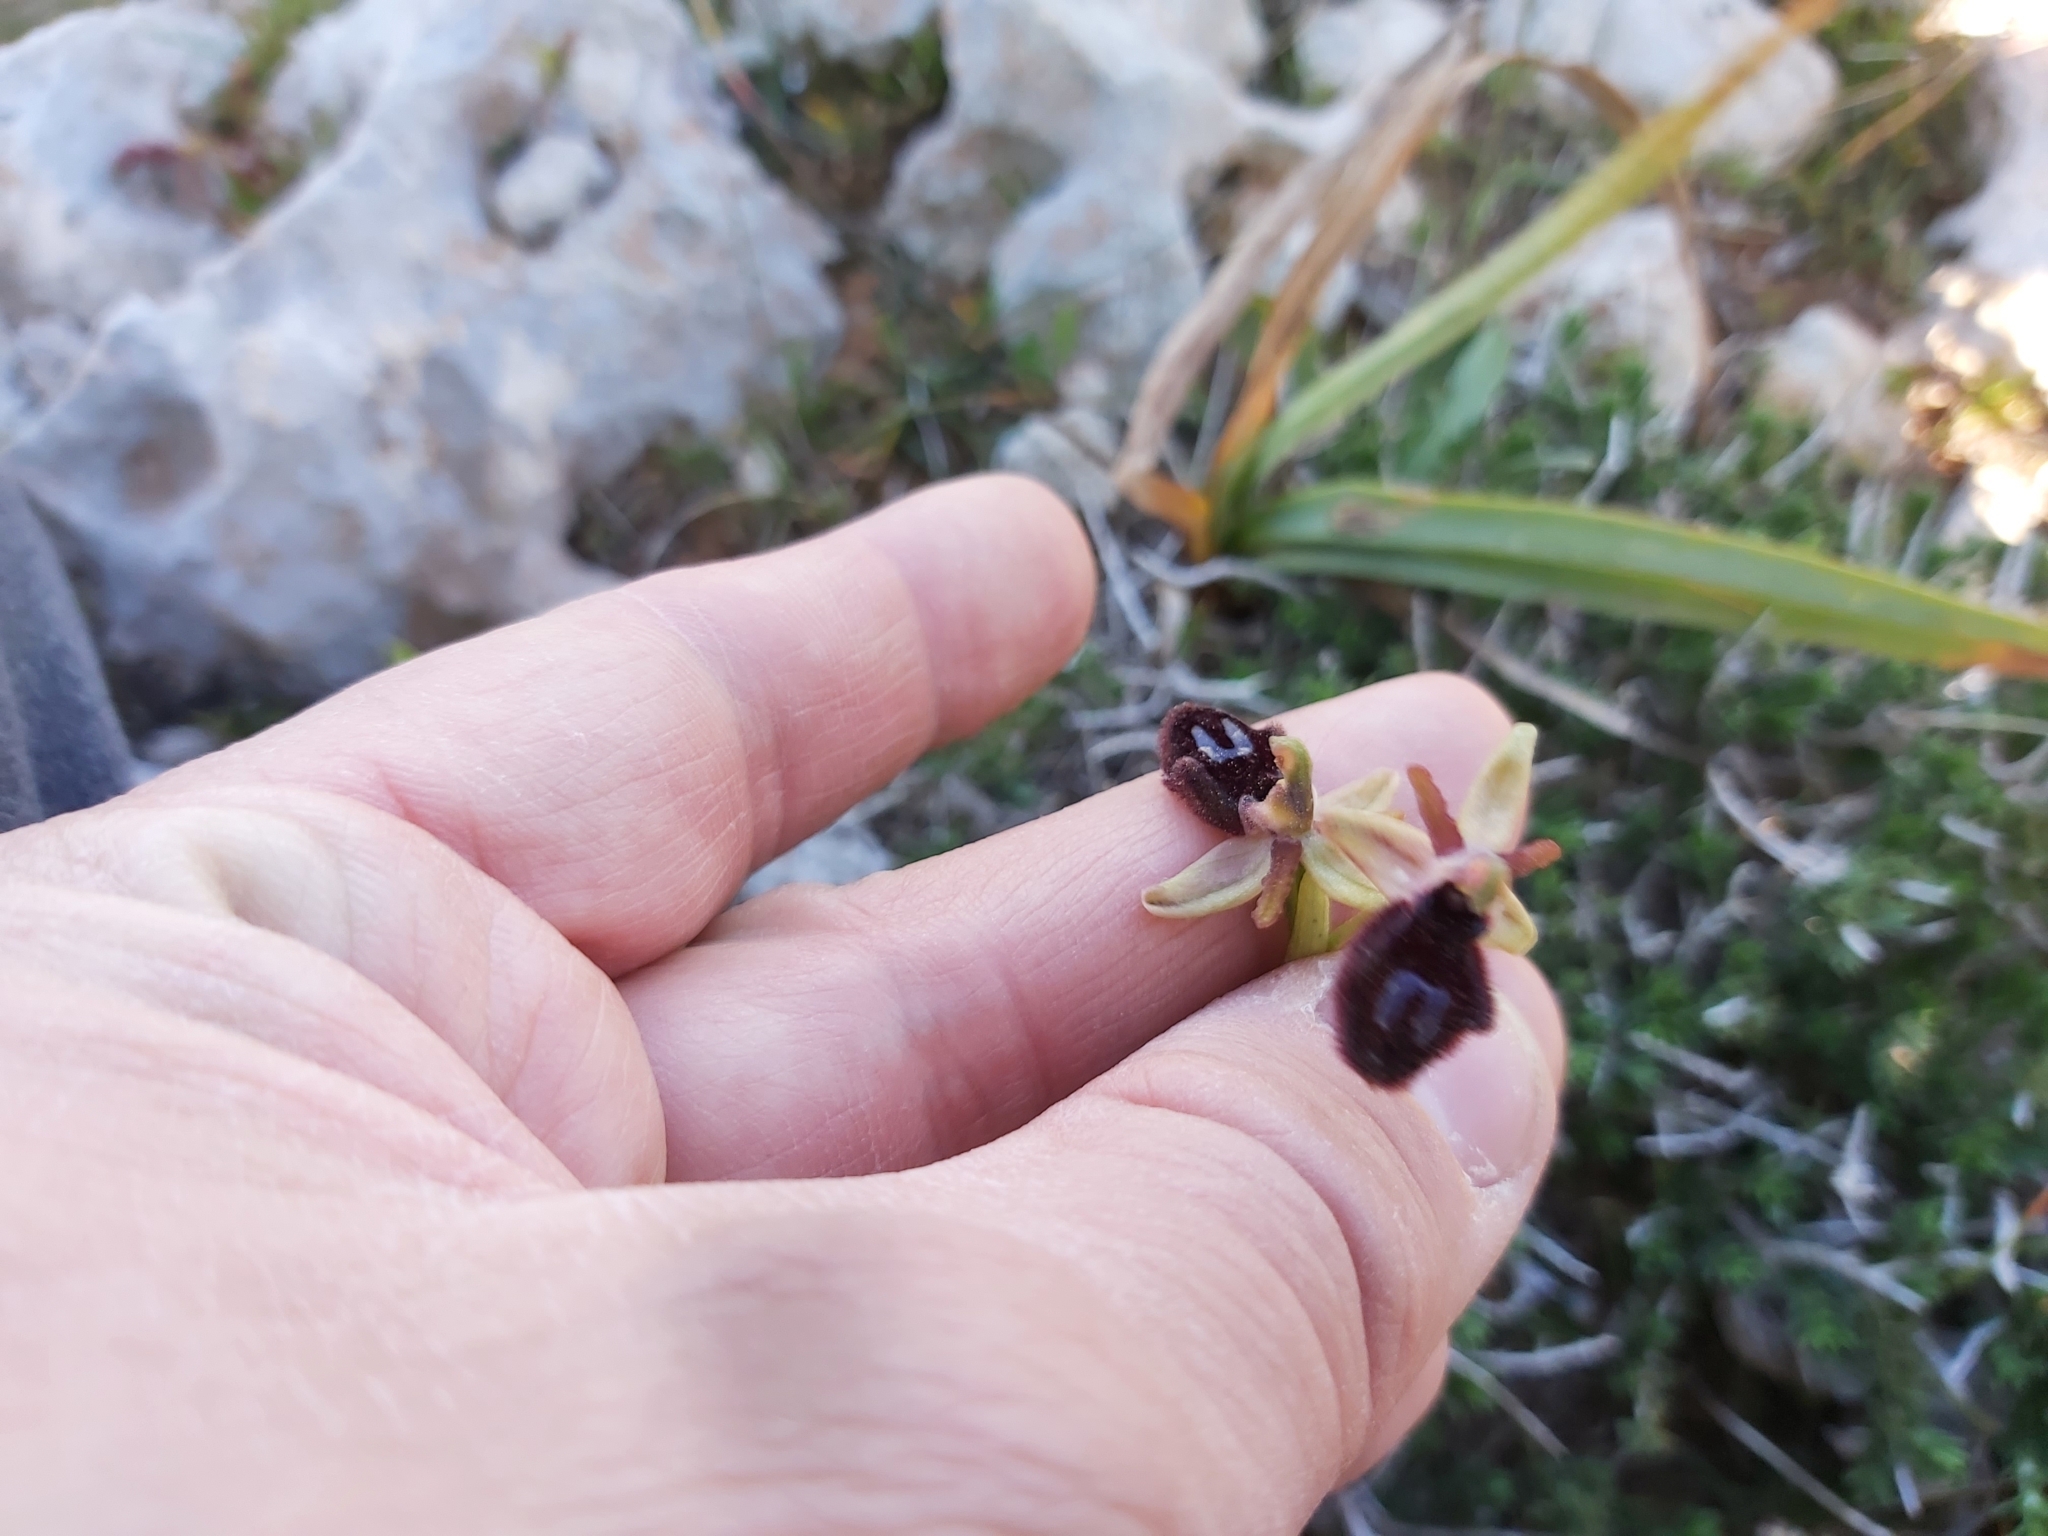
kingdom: Plantae
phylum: Tracheophyta
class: Liliopsida
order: Asparagales
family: Orchidaceae
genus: Ophrys
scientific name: Ophrys flavicans
